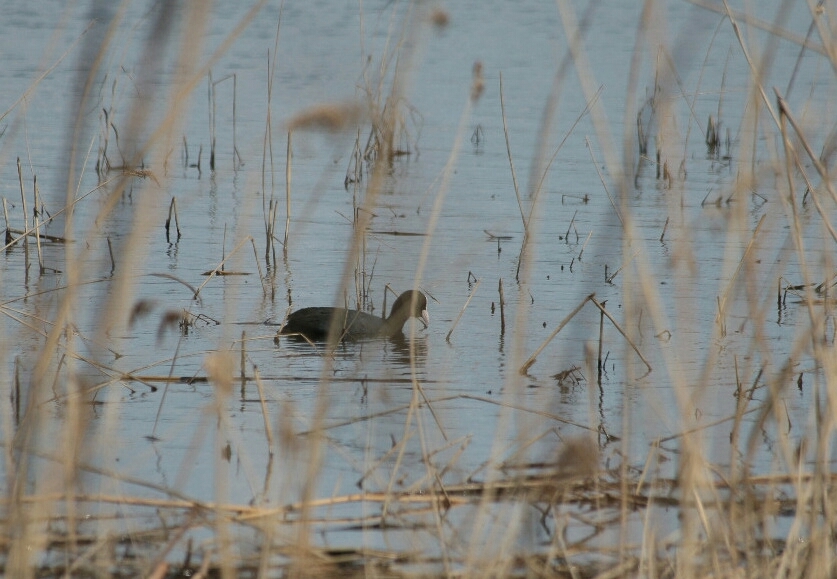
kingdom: Animalia
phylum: Chordata
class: Aves
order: Gruiformes
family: Rallidae
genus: Fulica
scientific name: Fulica atra
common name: Eurasian coot
